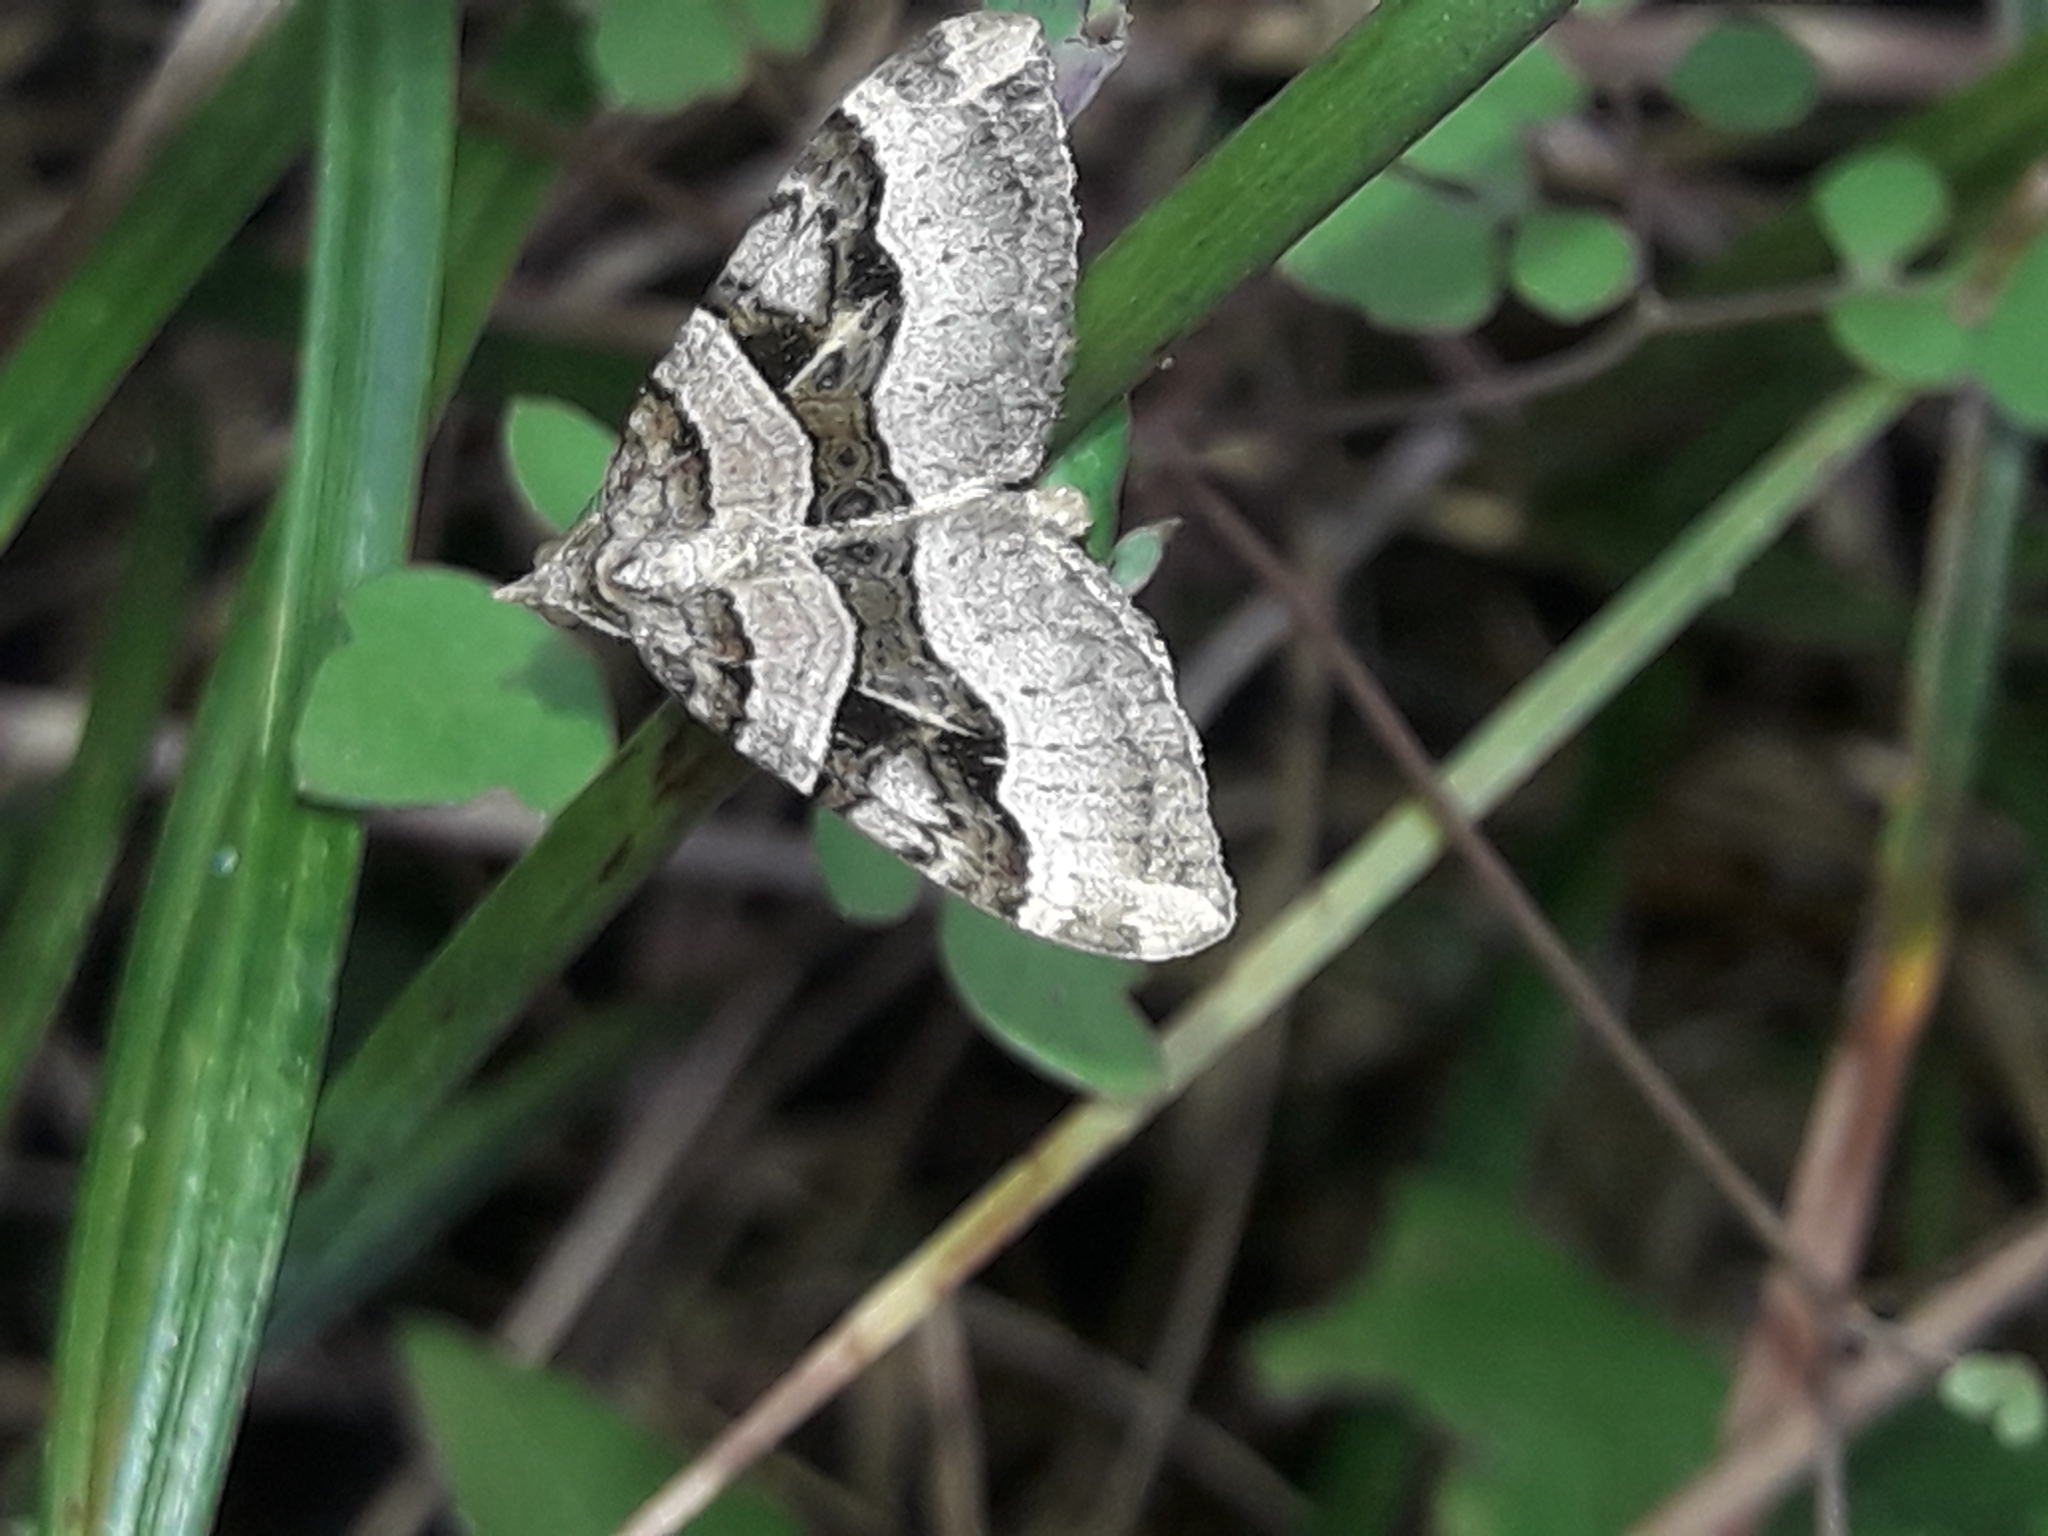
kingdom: Animalia
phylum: Arthropoda
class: Insecta
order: Lepidoptera
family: Geometridae
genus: Xanthorhoe
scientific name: Xanthorhoe semifissata
